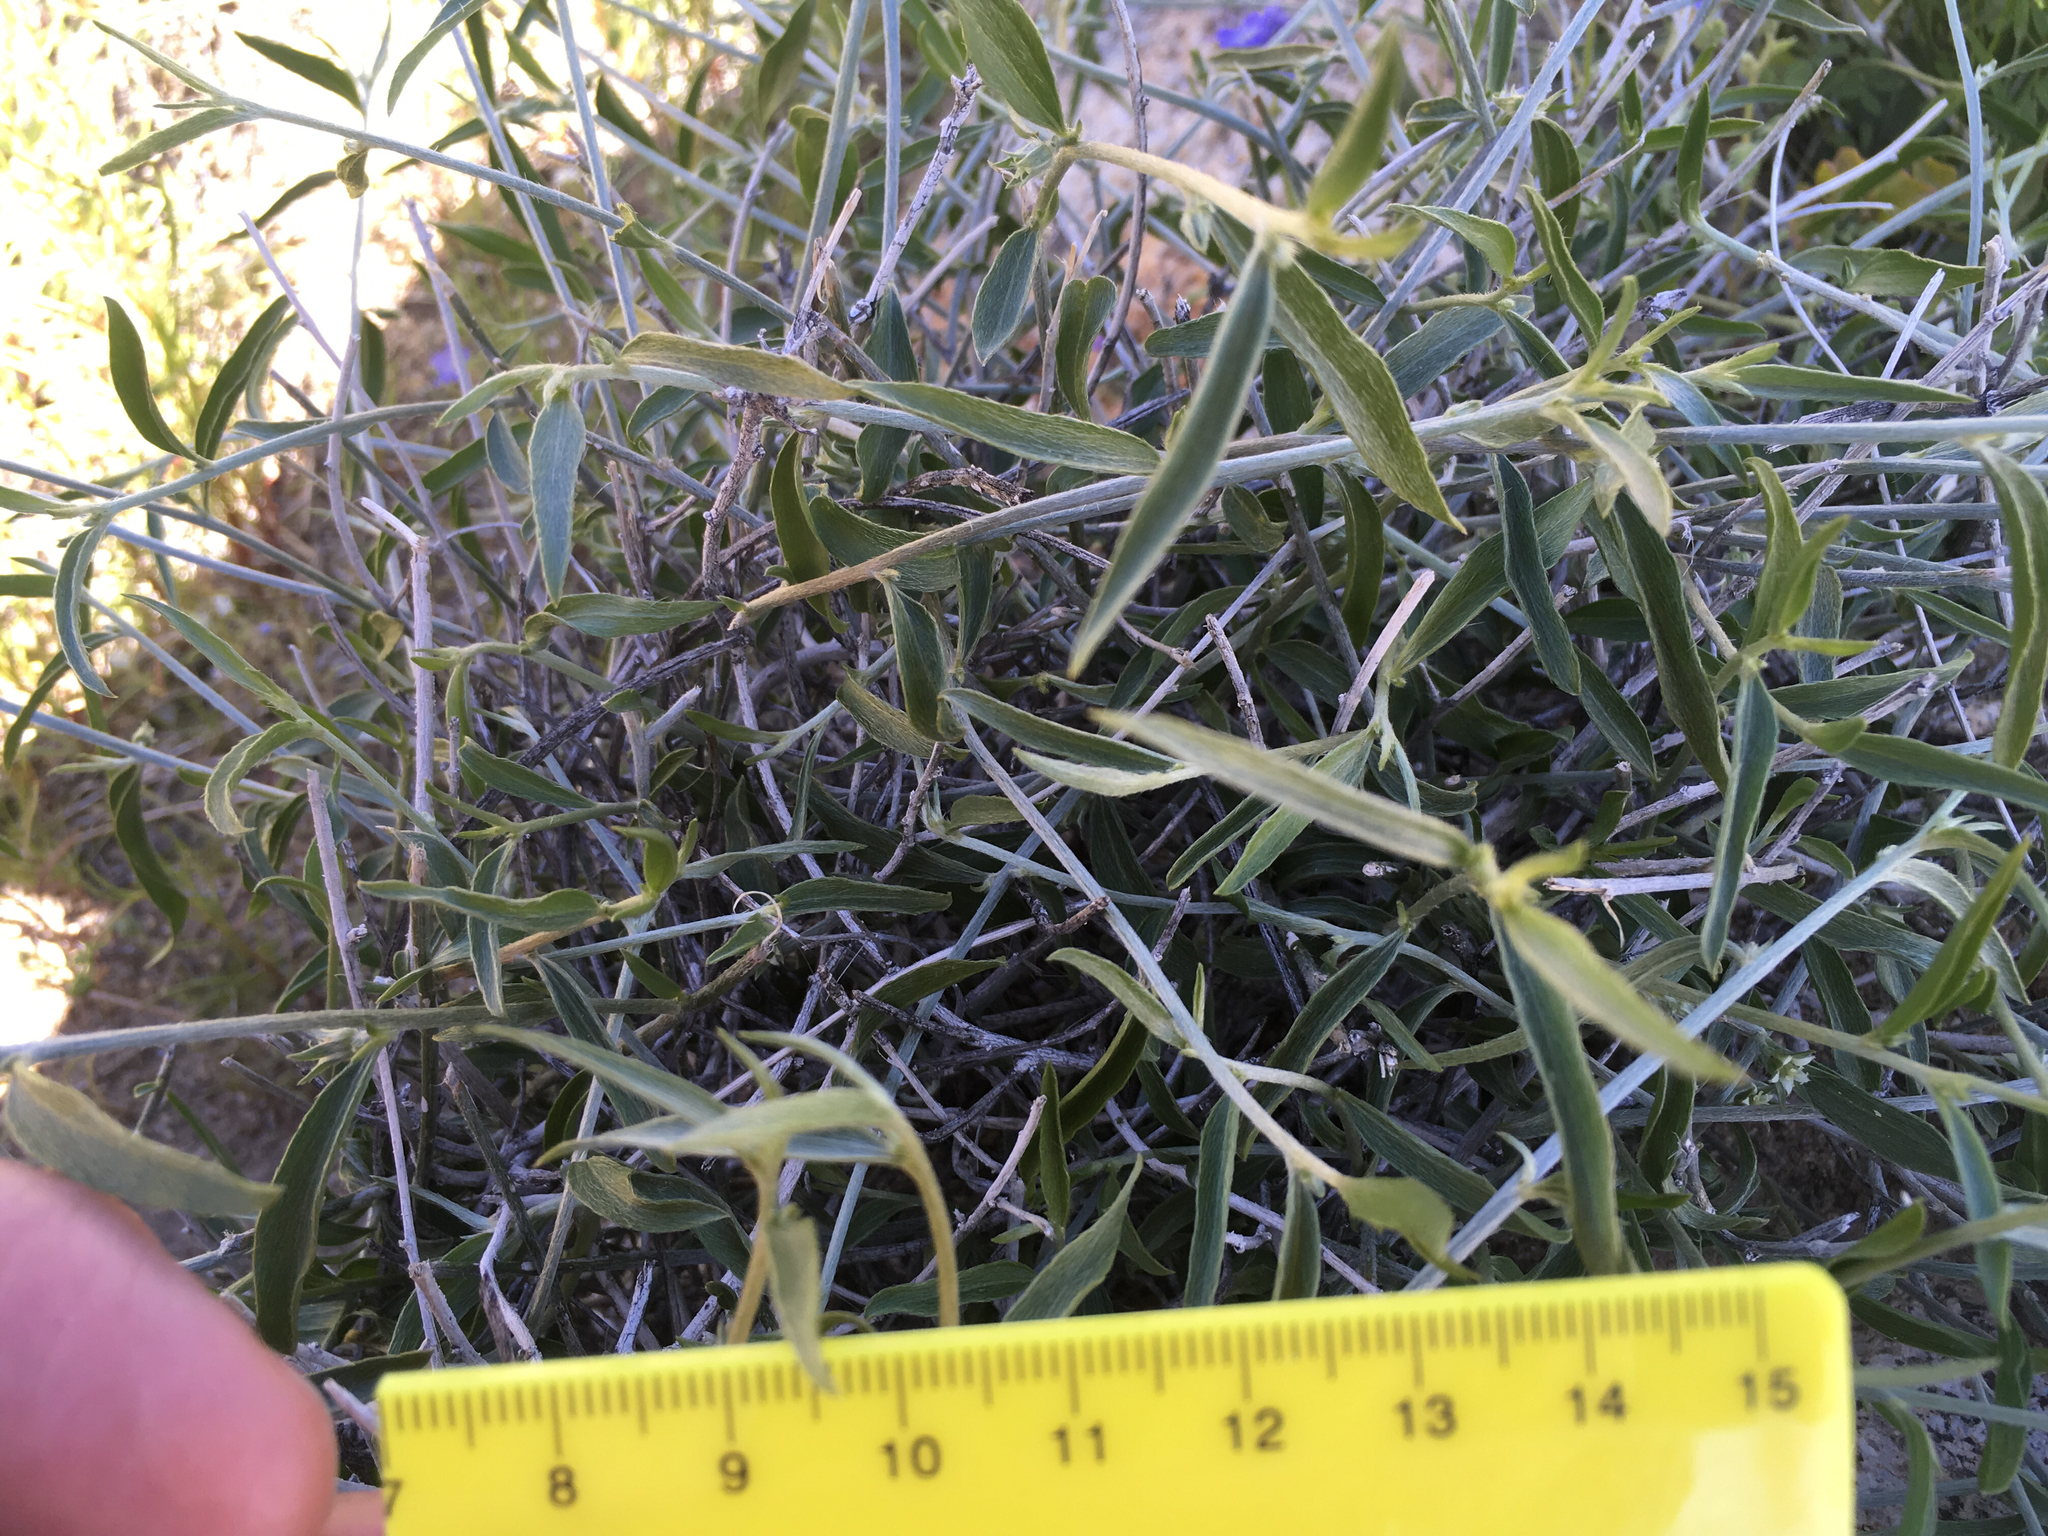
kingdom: Plantae
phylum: Tracheophyta
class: Magnoliopsida
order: Malpighiales
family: Euphorbiaceae
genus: Ditaxis
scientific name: Ditaxis lanceolata
